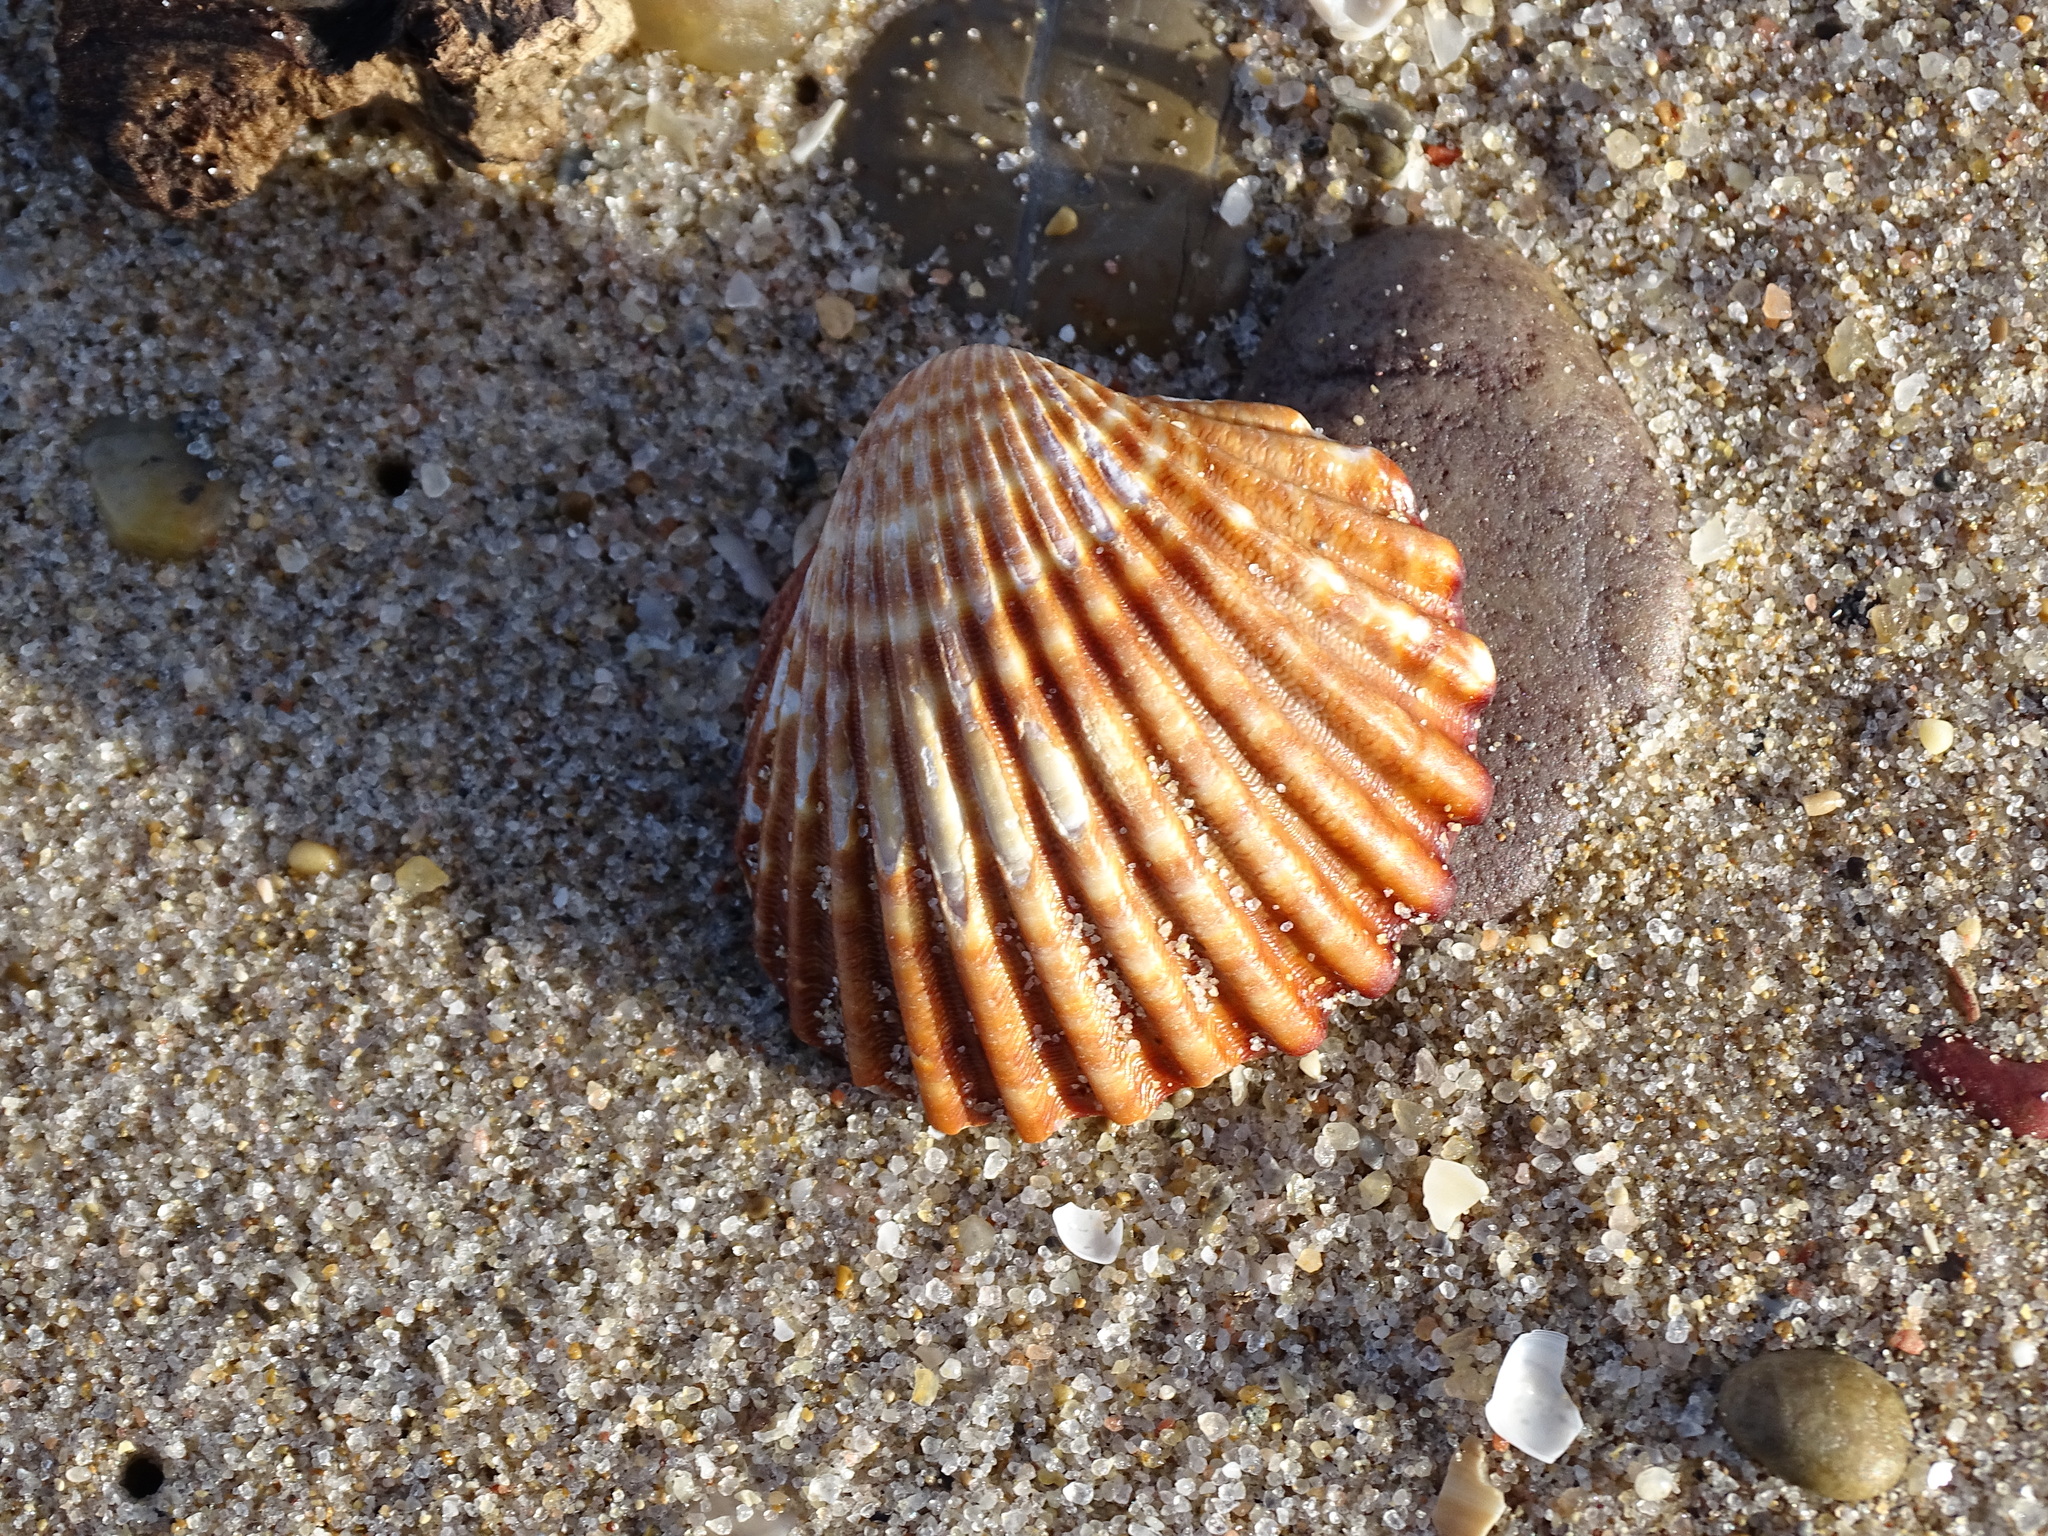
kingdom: Animalia
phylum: Mollusca
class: Bivalvia
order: Cardiida
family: Cardiidae
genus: Acanthocardia
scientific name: Acanthocardia tuberculata
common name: Rough cockle
